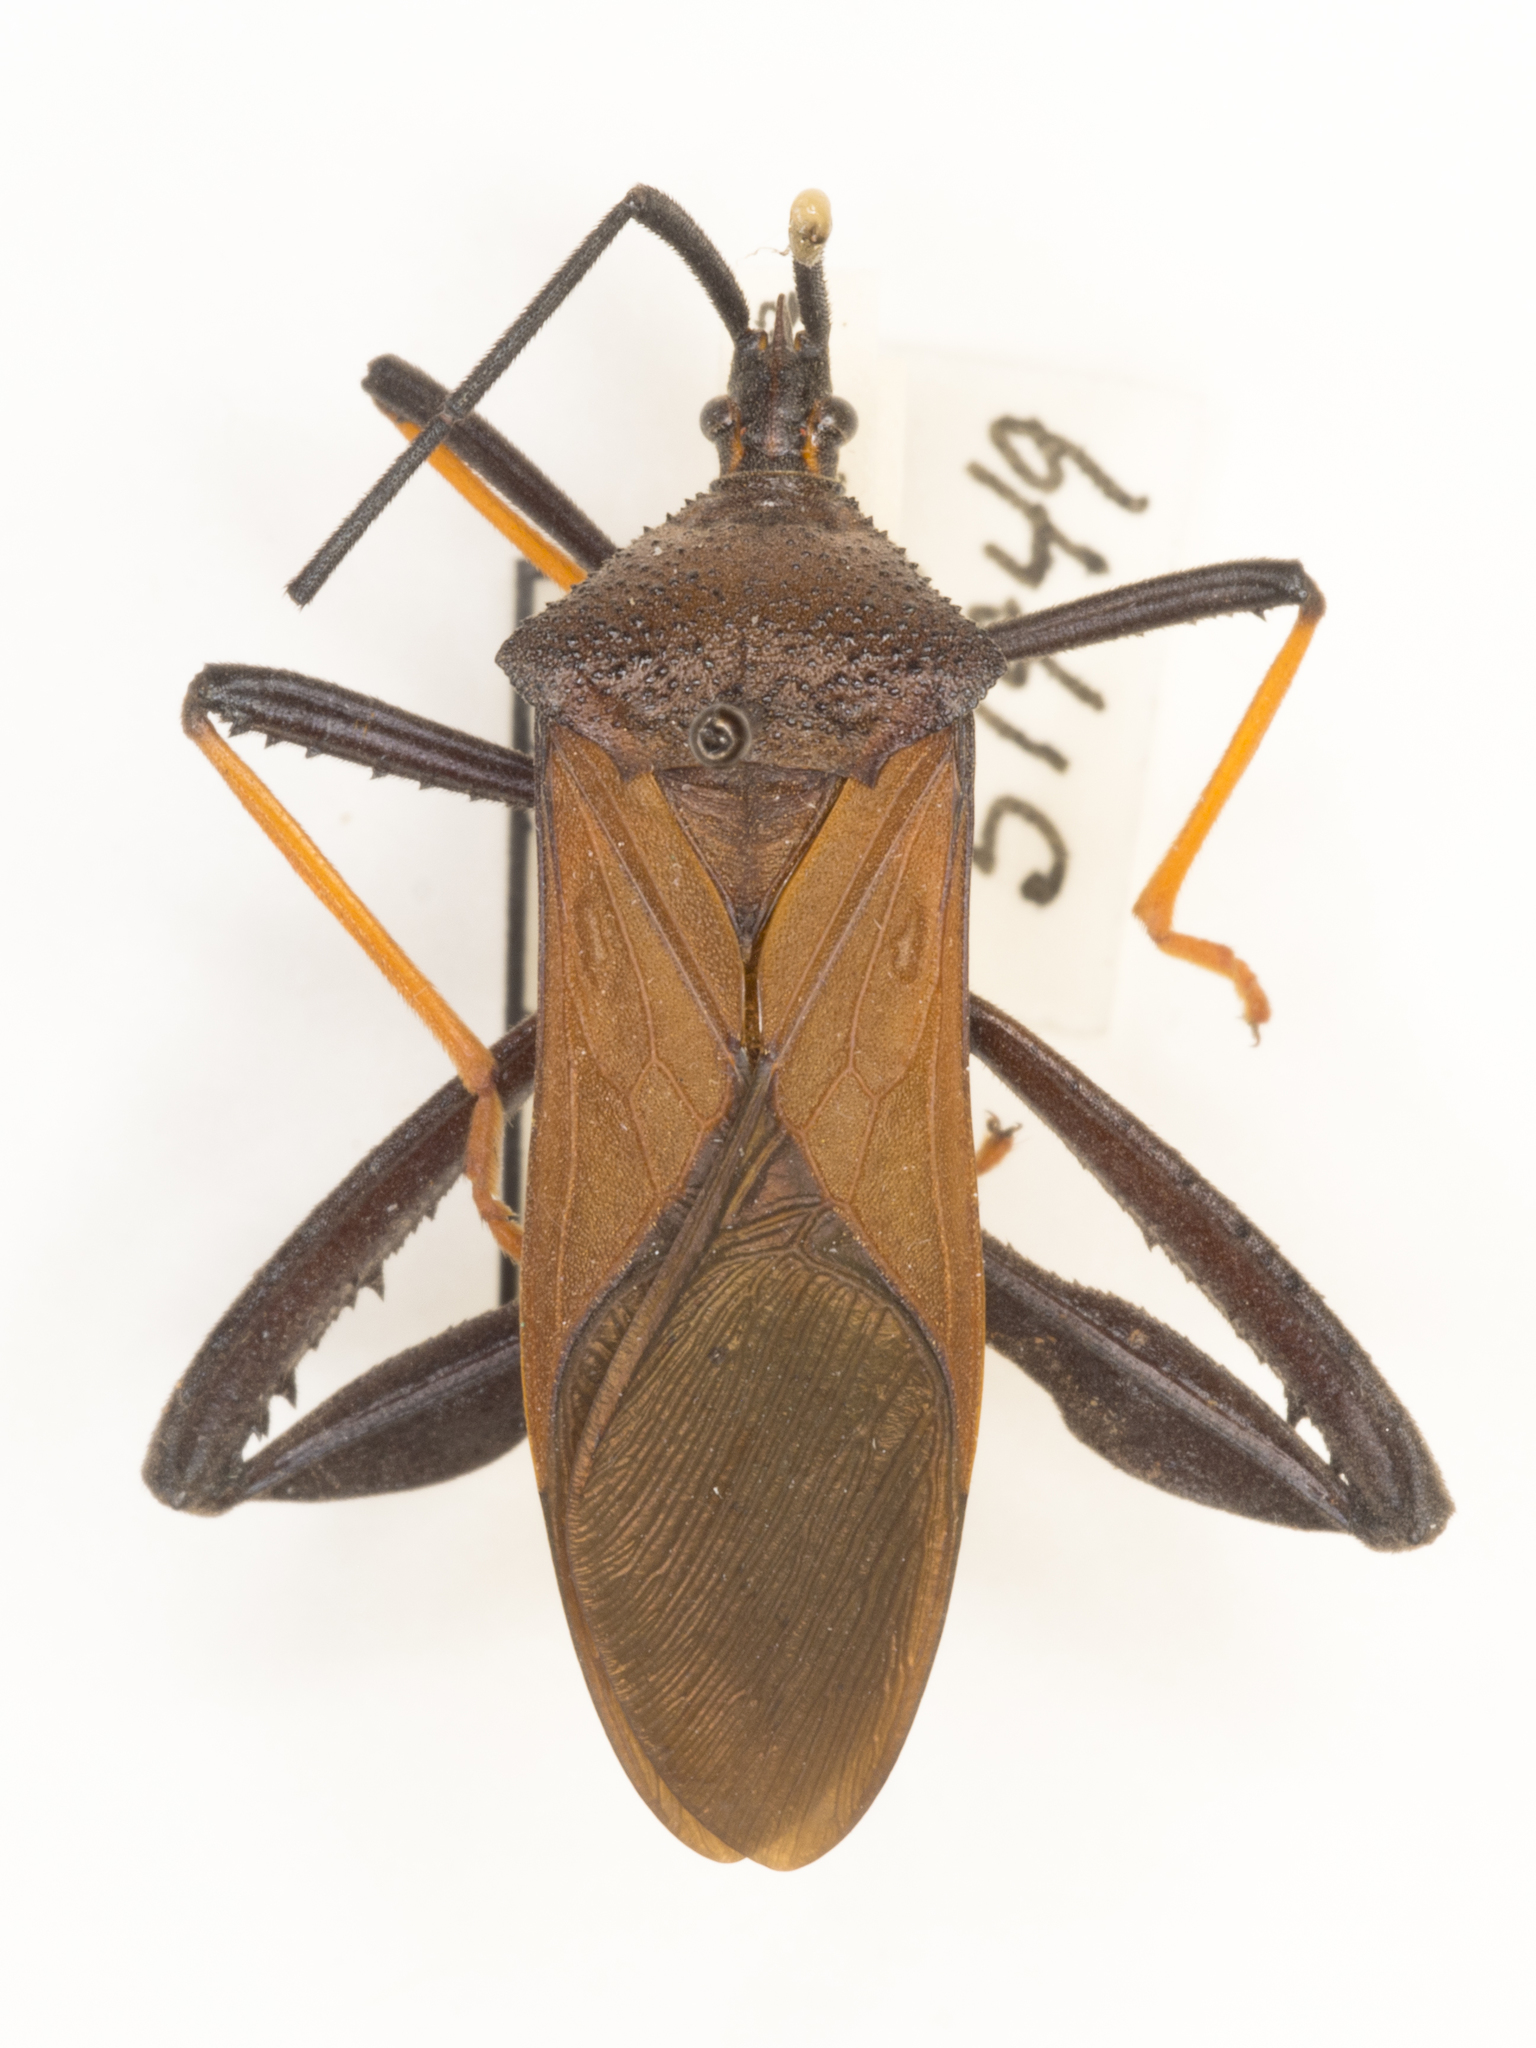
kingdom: Animalia
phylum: Arthropoda
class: Insecta
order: Hemiptera
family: Coreidae
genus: Acanthocephala
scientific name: Acanthocephala thomasi
